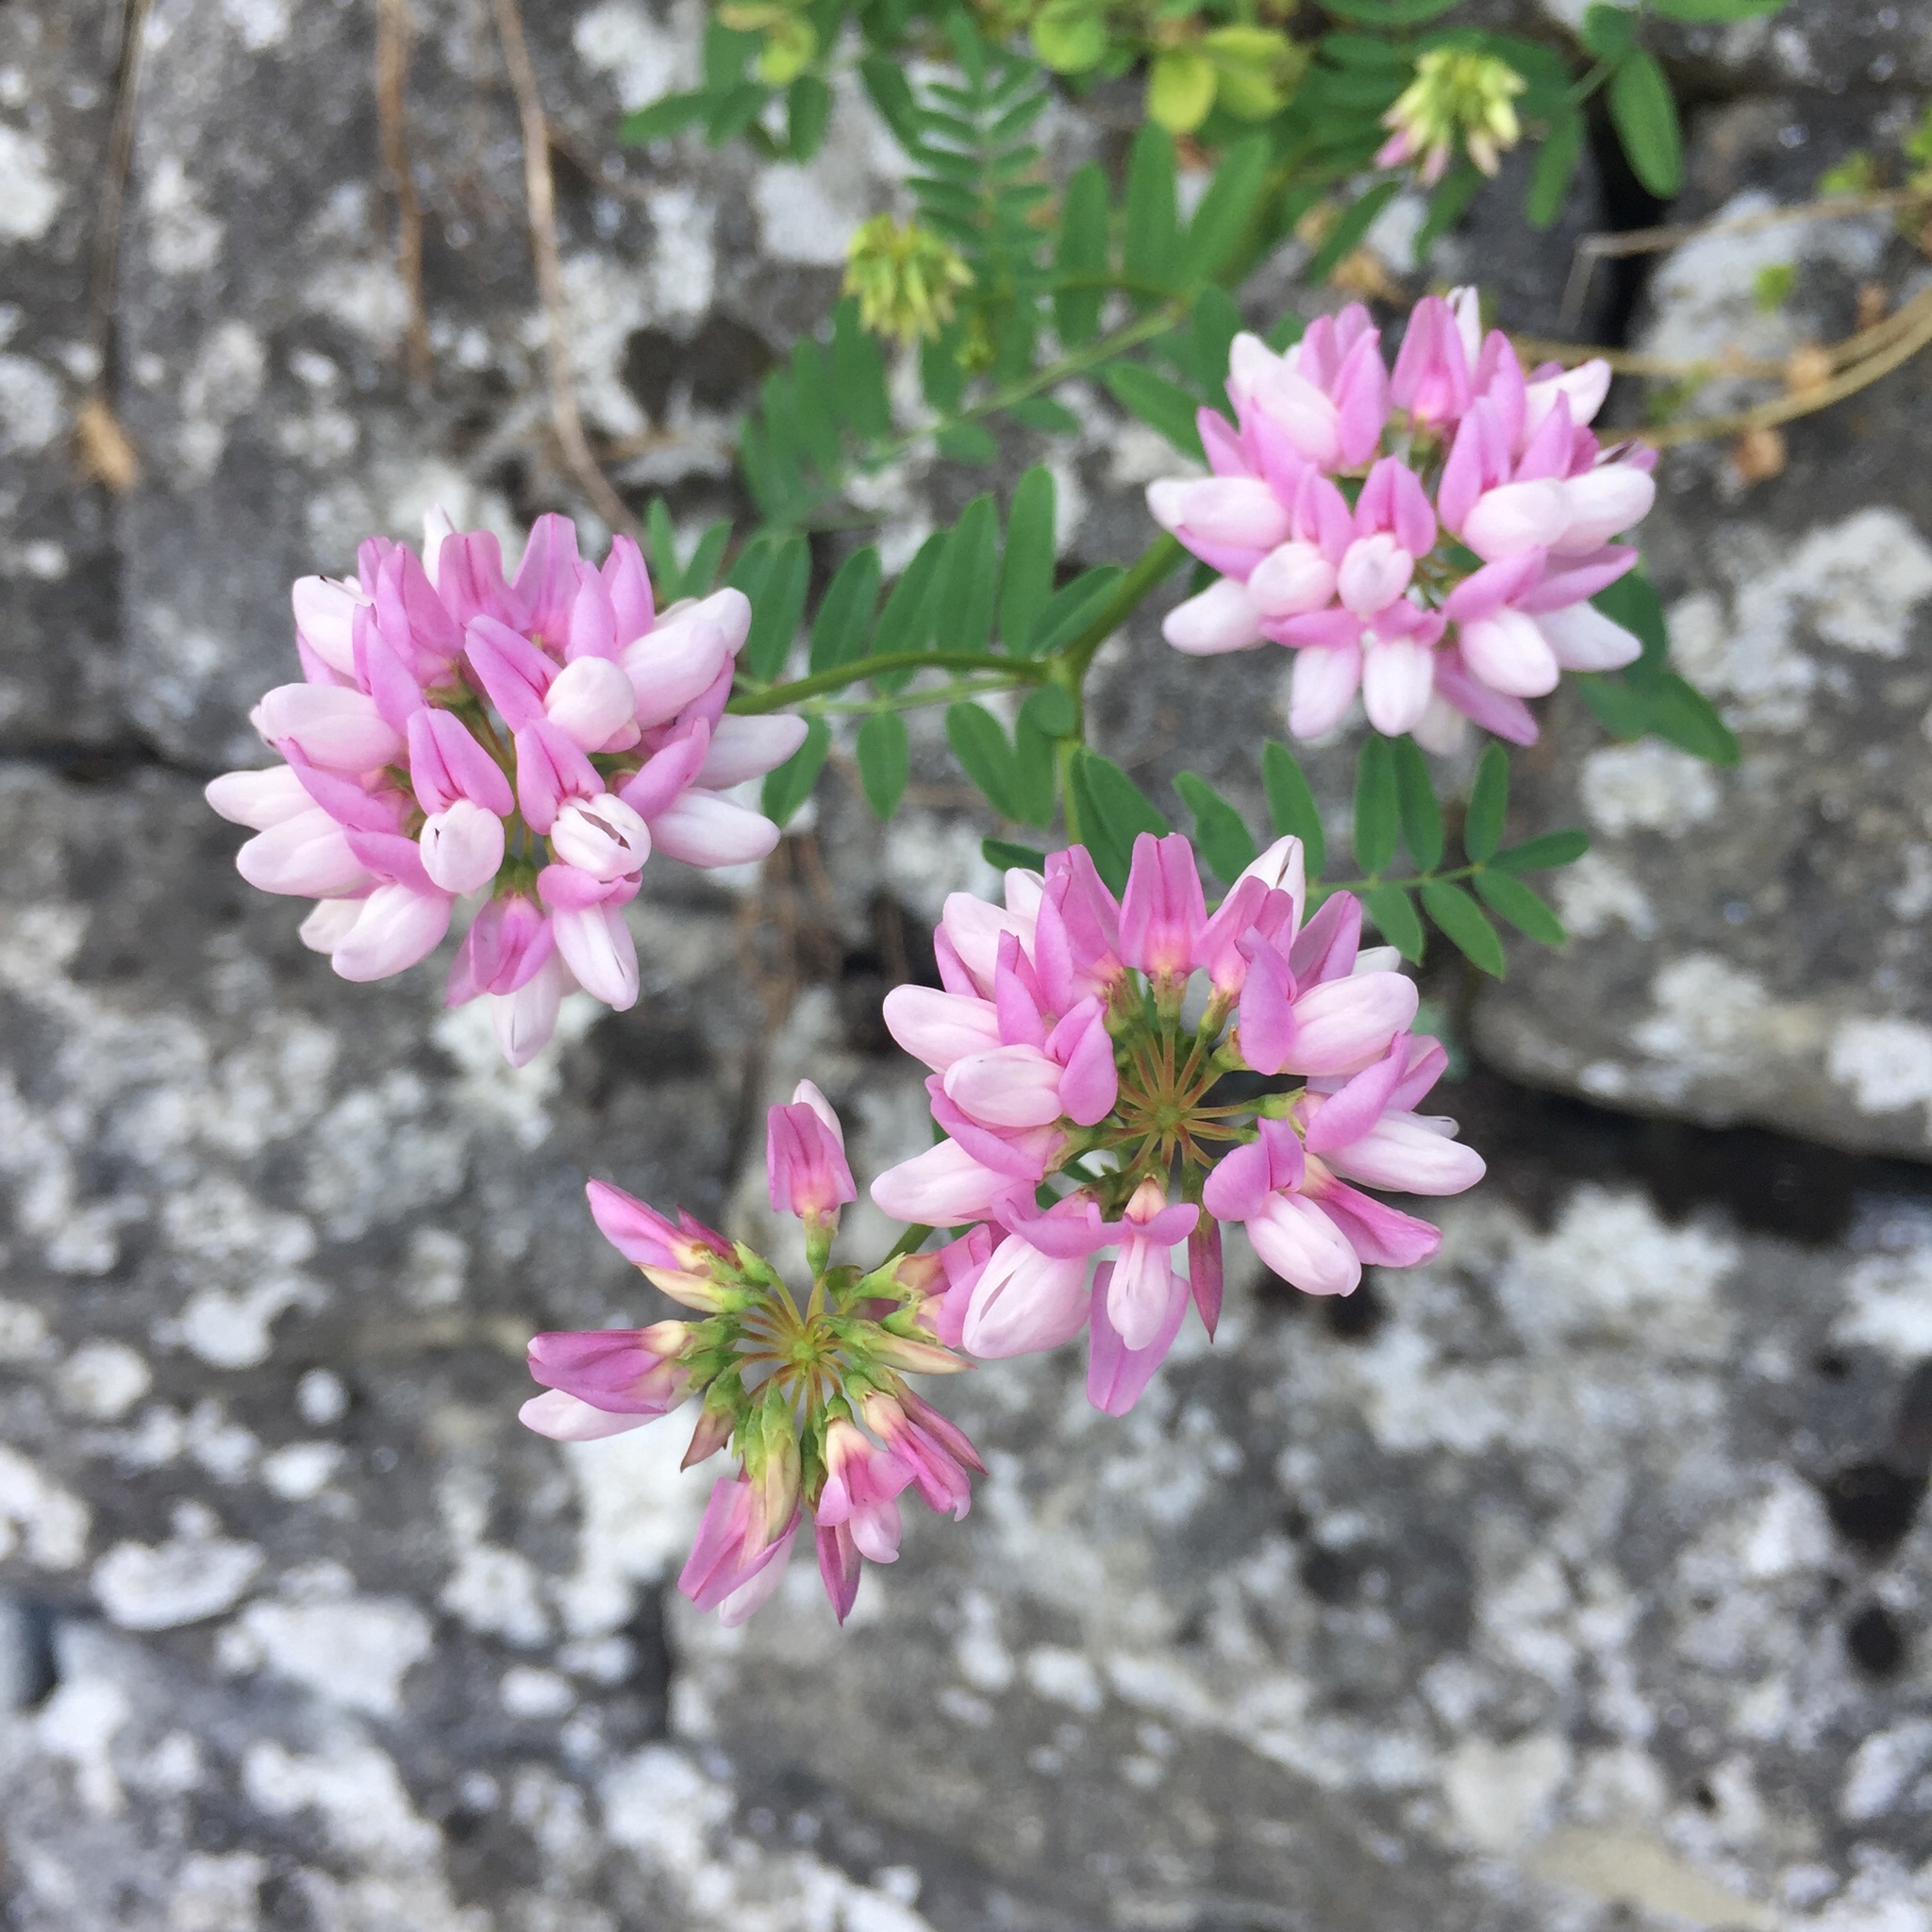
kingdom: Plantae
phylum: Tracheophyta
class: Magnoliopsida
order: Fabales
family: Fabaceae
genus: Coronilla
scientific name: Coronilla varia
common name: Crownvetch
